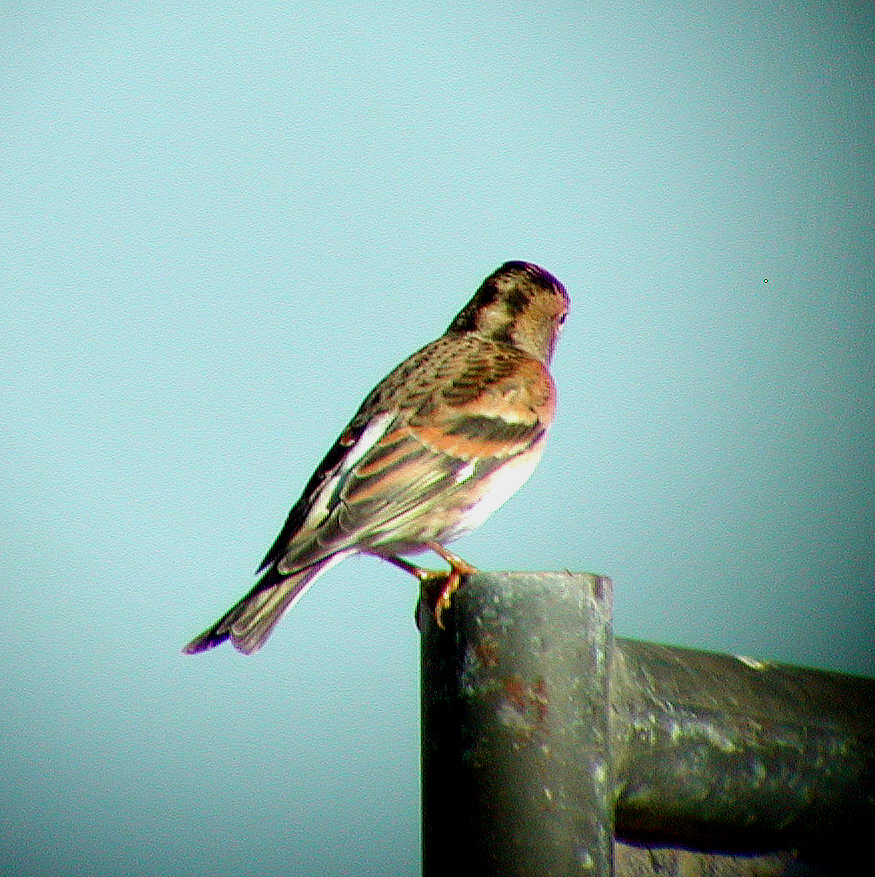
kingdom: Animalia
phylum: Chordata
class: Aves
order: Passeriformes
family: Fringillidae
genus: Fringilla
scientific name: Fringilla montifringilla
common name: Brambling
